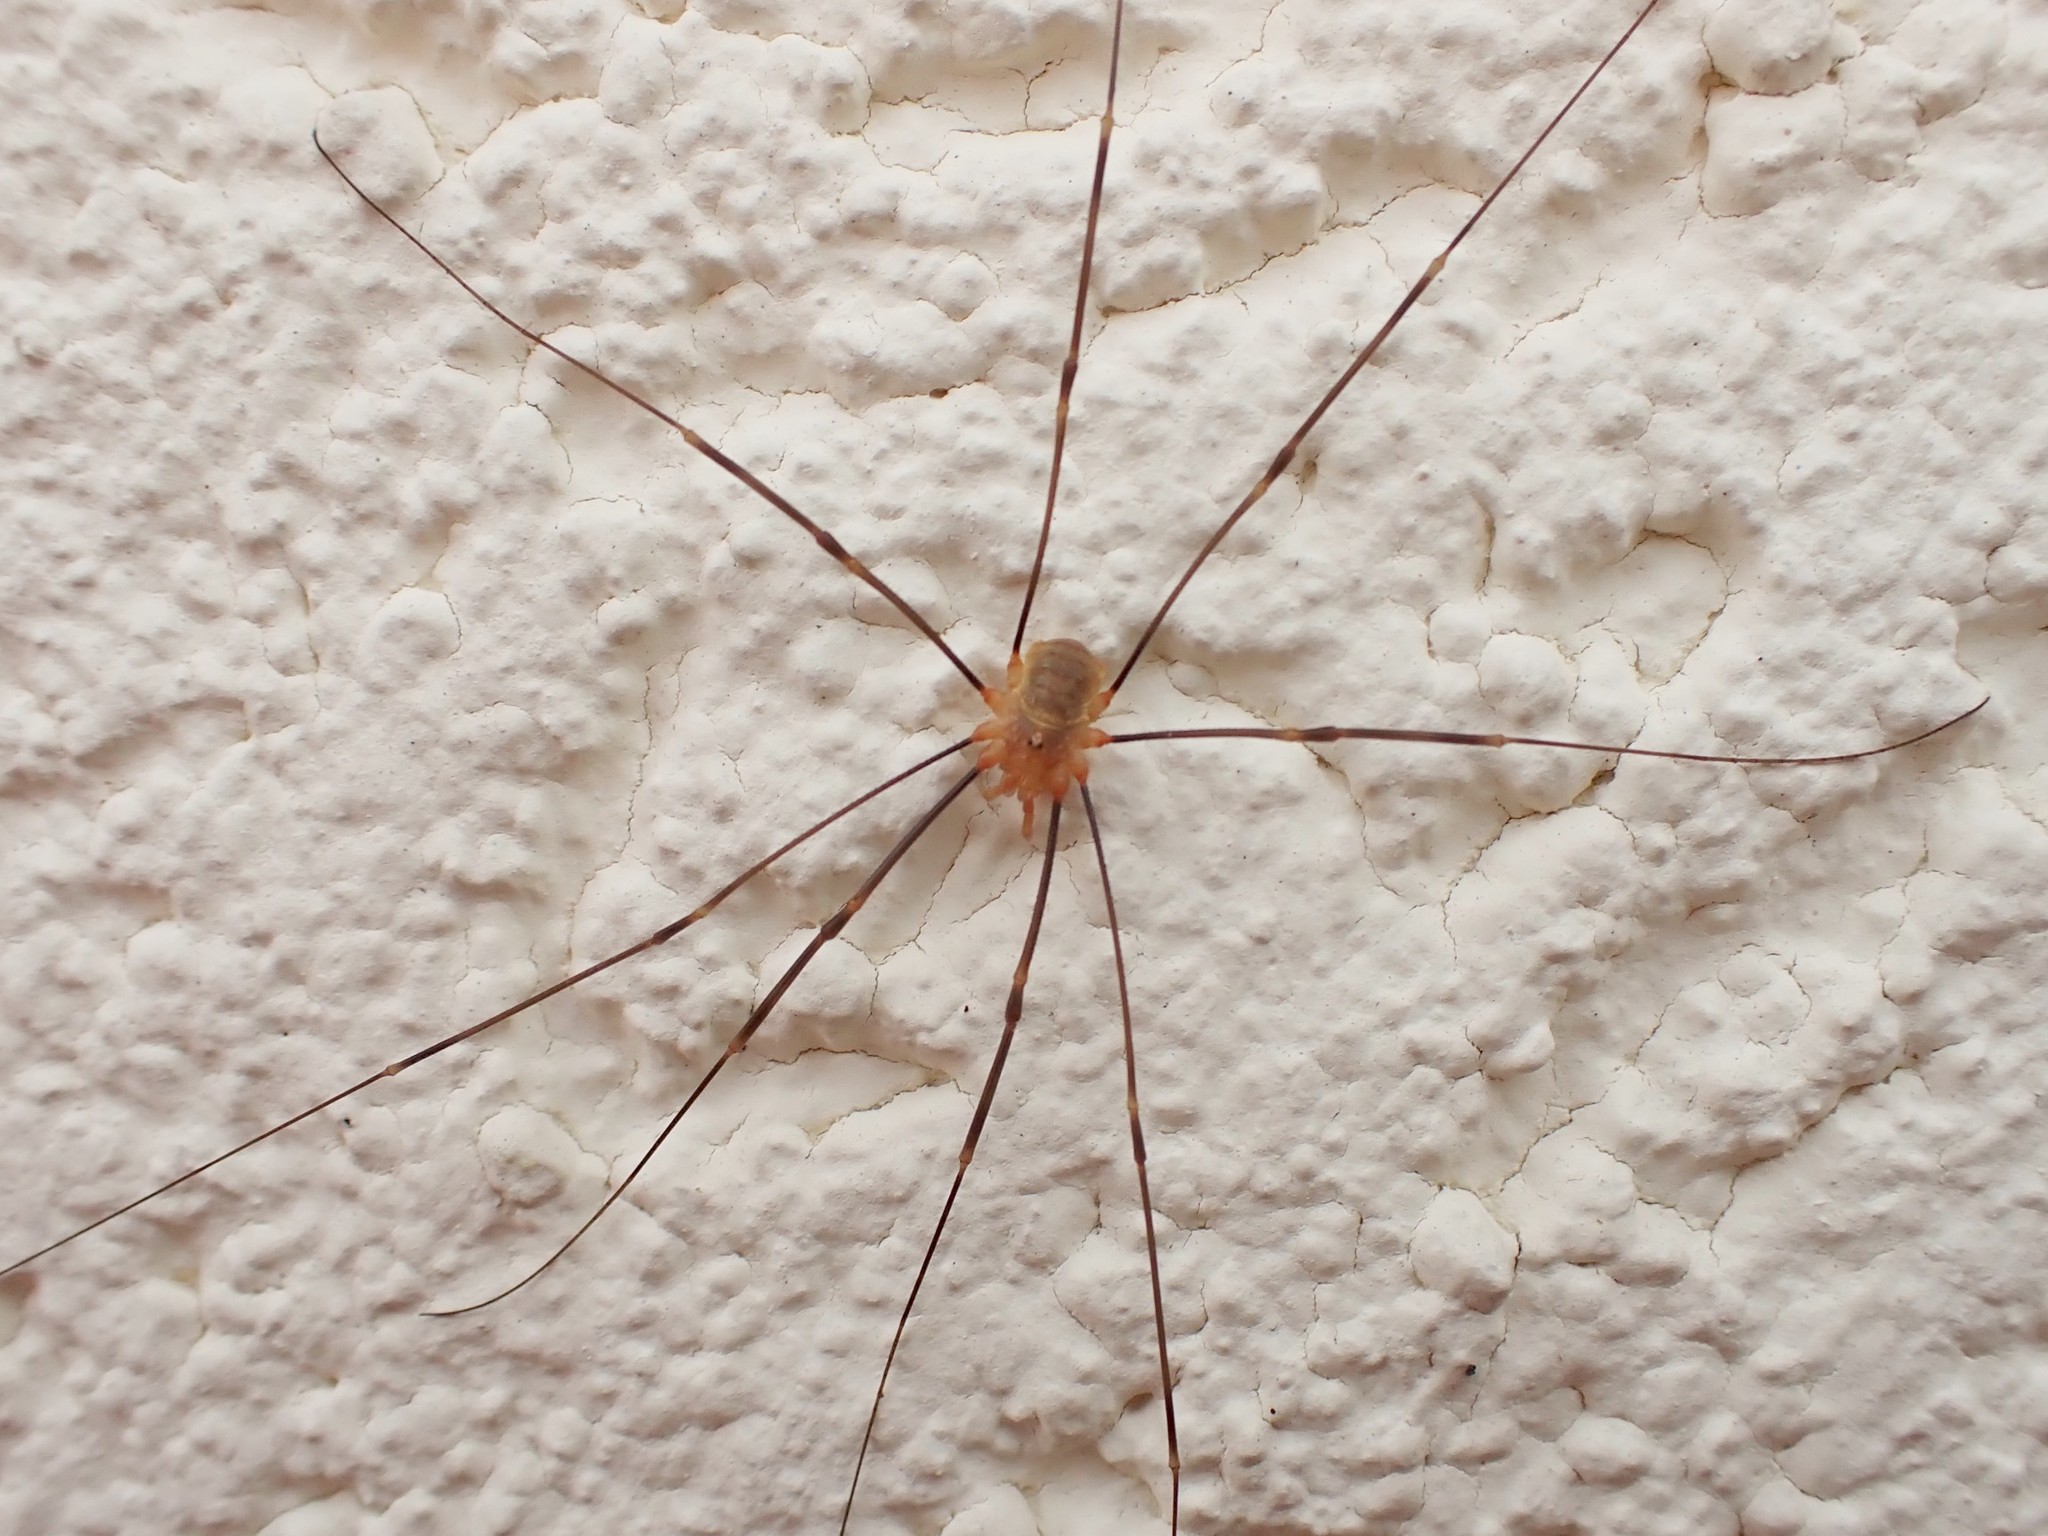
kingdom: Animalia
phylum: Arthropoda
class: Arachnida
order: Opiliones
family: Phalangiidae
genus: Opilio
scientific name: Opilio canestrinii
